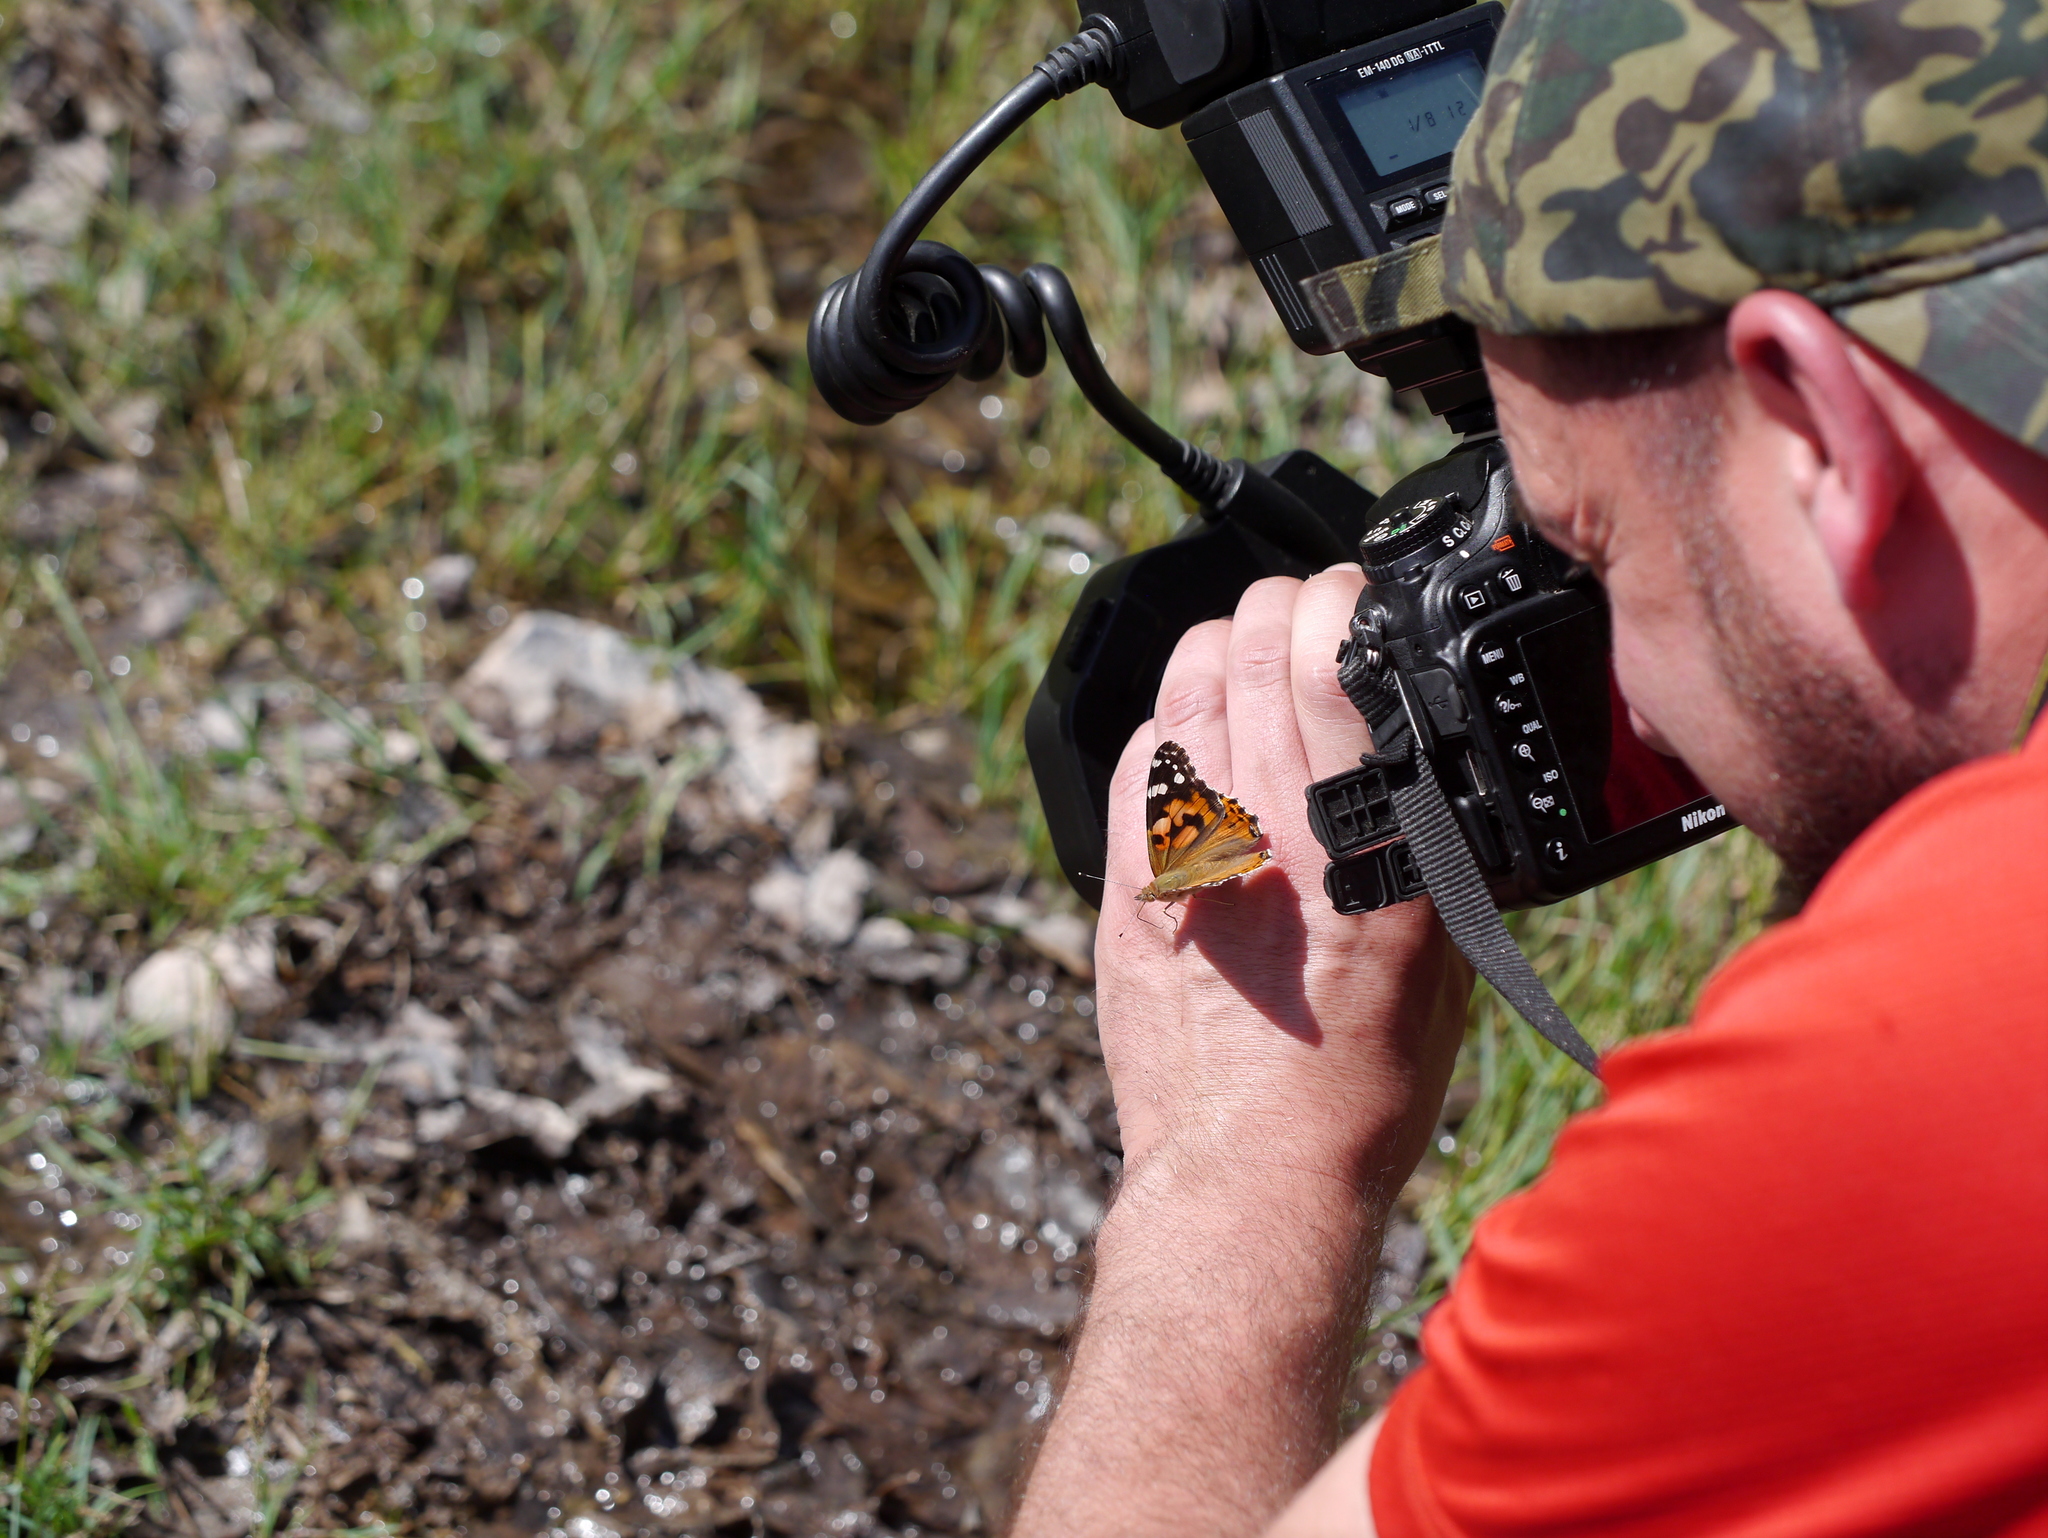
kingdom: Animalia
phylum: Arthropoda
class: Insecta
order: Lepidoptera
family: Nymphalidae
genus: Vanessa
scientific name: Vanessa cardui
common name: Painted lady
